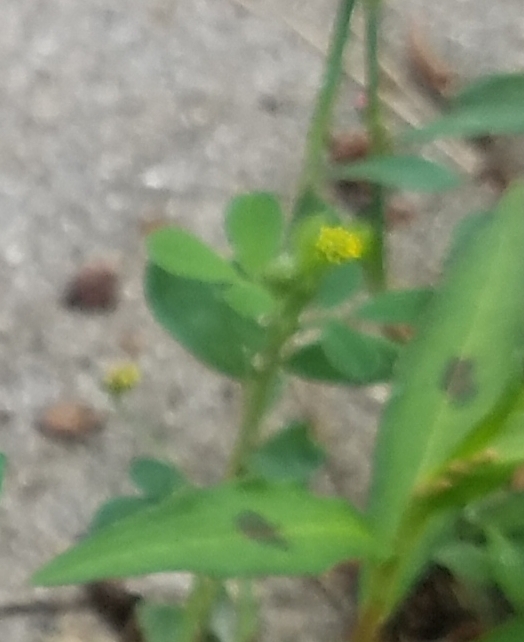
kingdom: Plantae
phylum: Tracheophyta
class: Magnoliopsida
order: Fabales
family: Fabaceae
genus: Medicago
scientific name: Medicago lupulina
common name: Black medick
